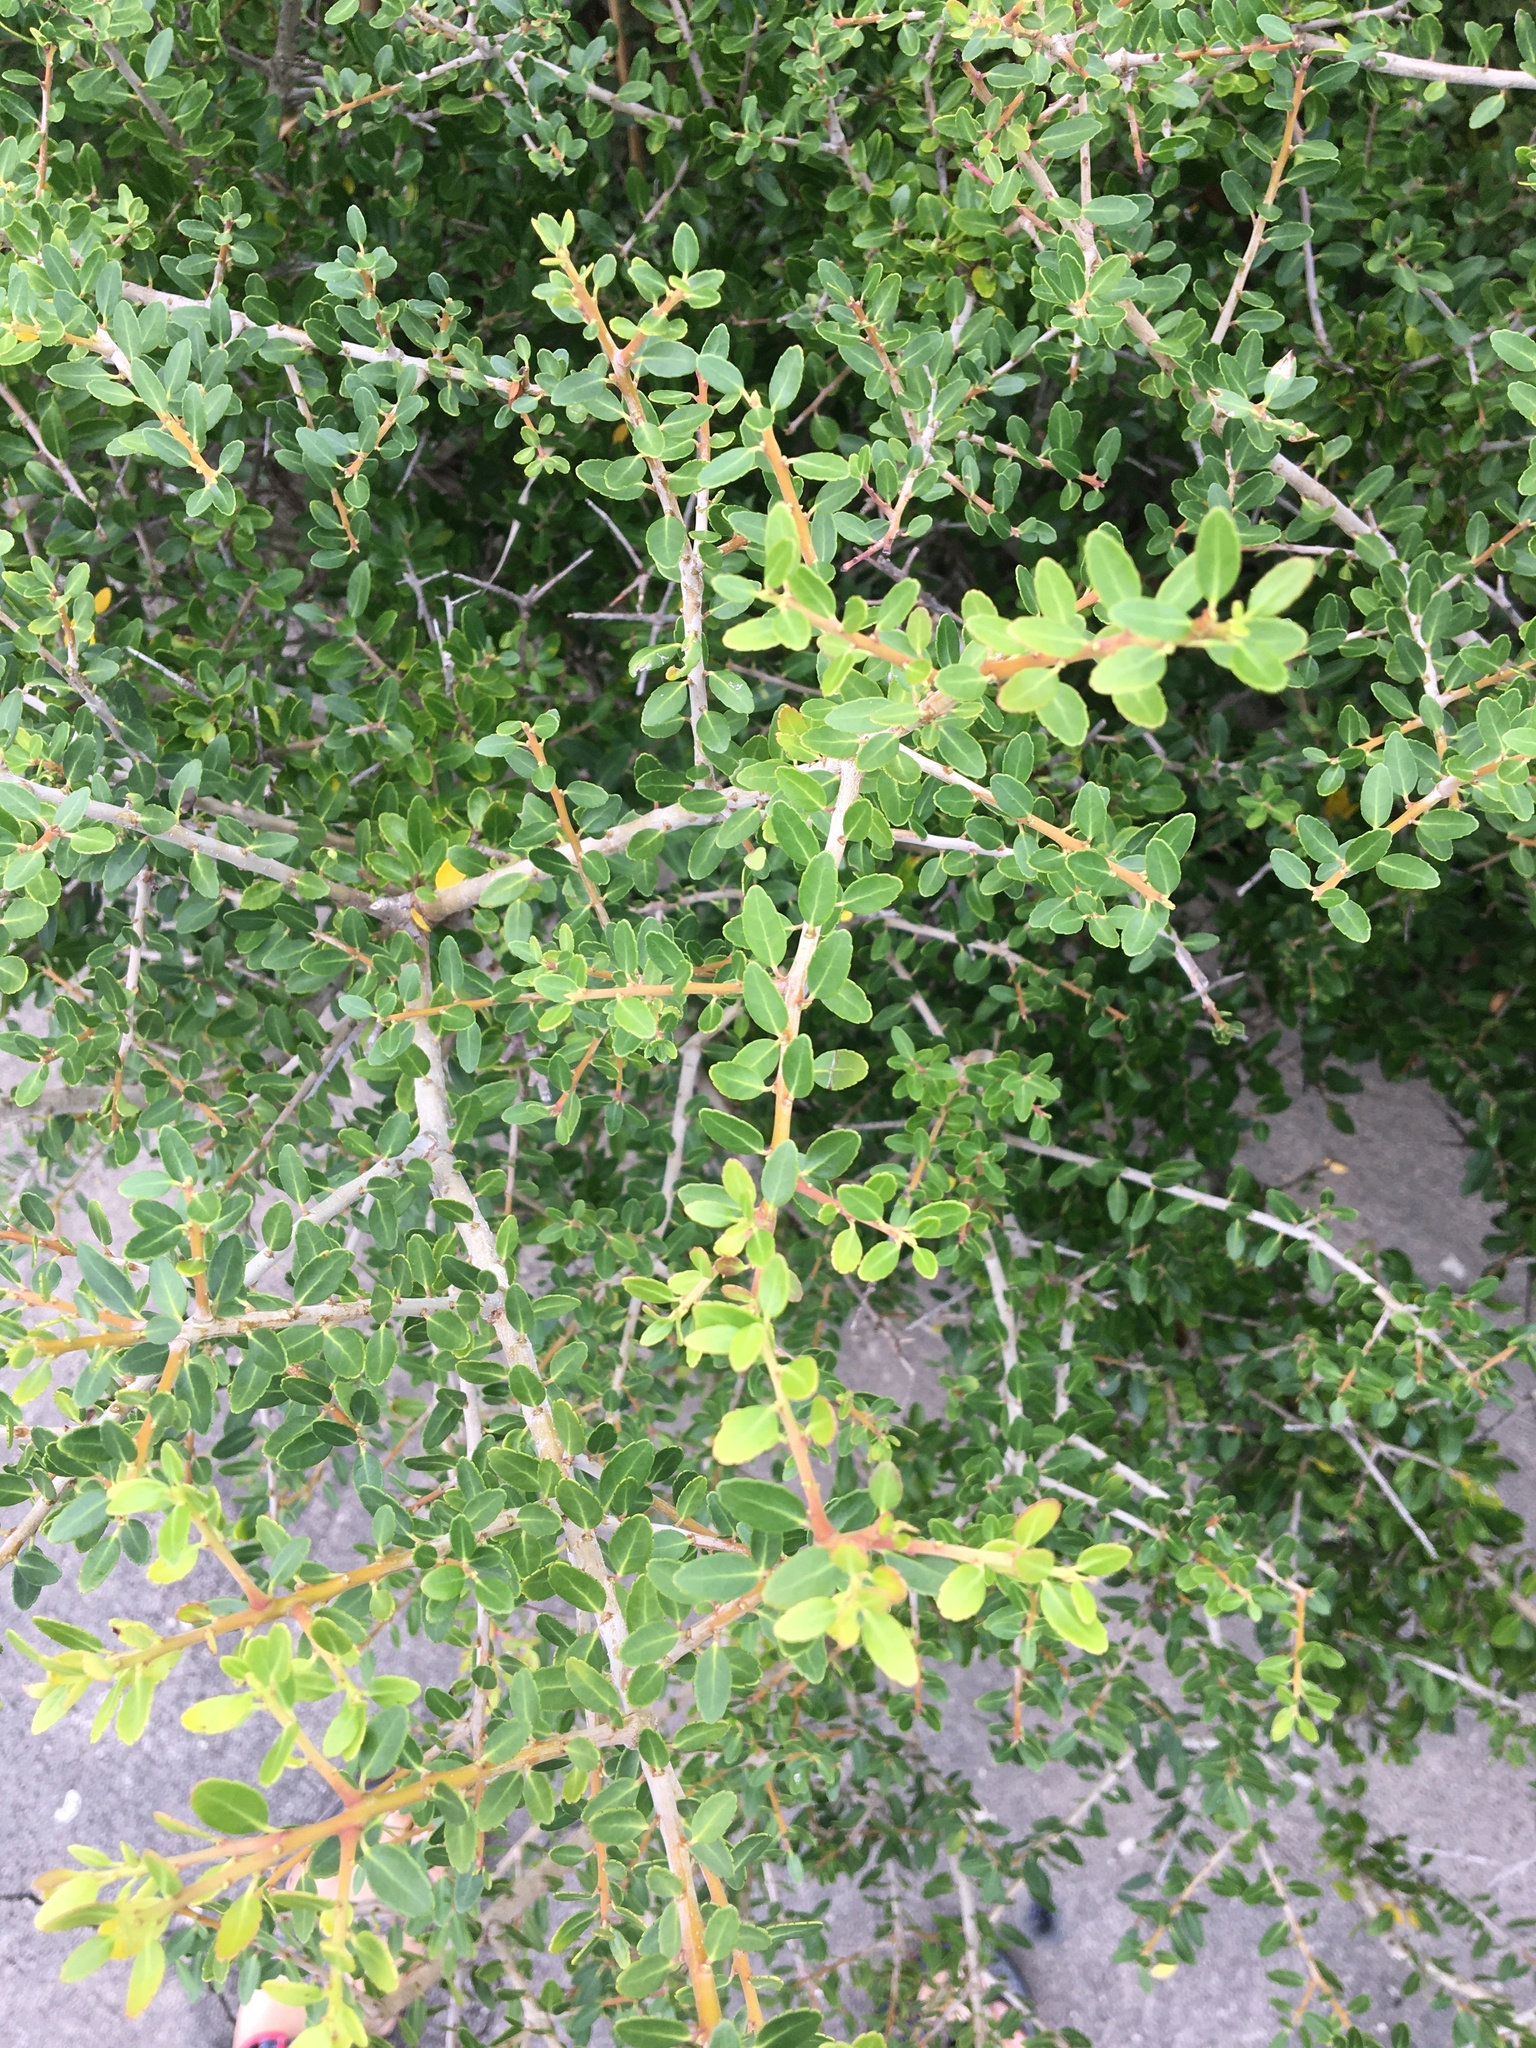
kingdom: Plantae
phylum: Tracheophyta
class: Magnoliopsida
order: Aquifoliales
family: Aquifoliaceae
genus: Ilex
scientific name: Ilex vomitoria
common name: Yaupon holly
